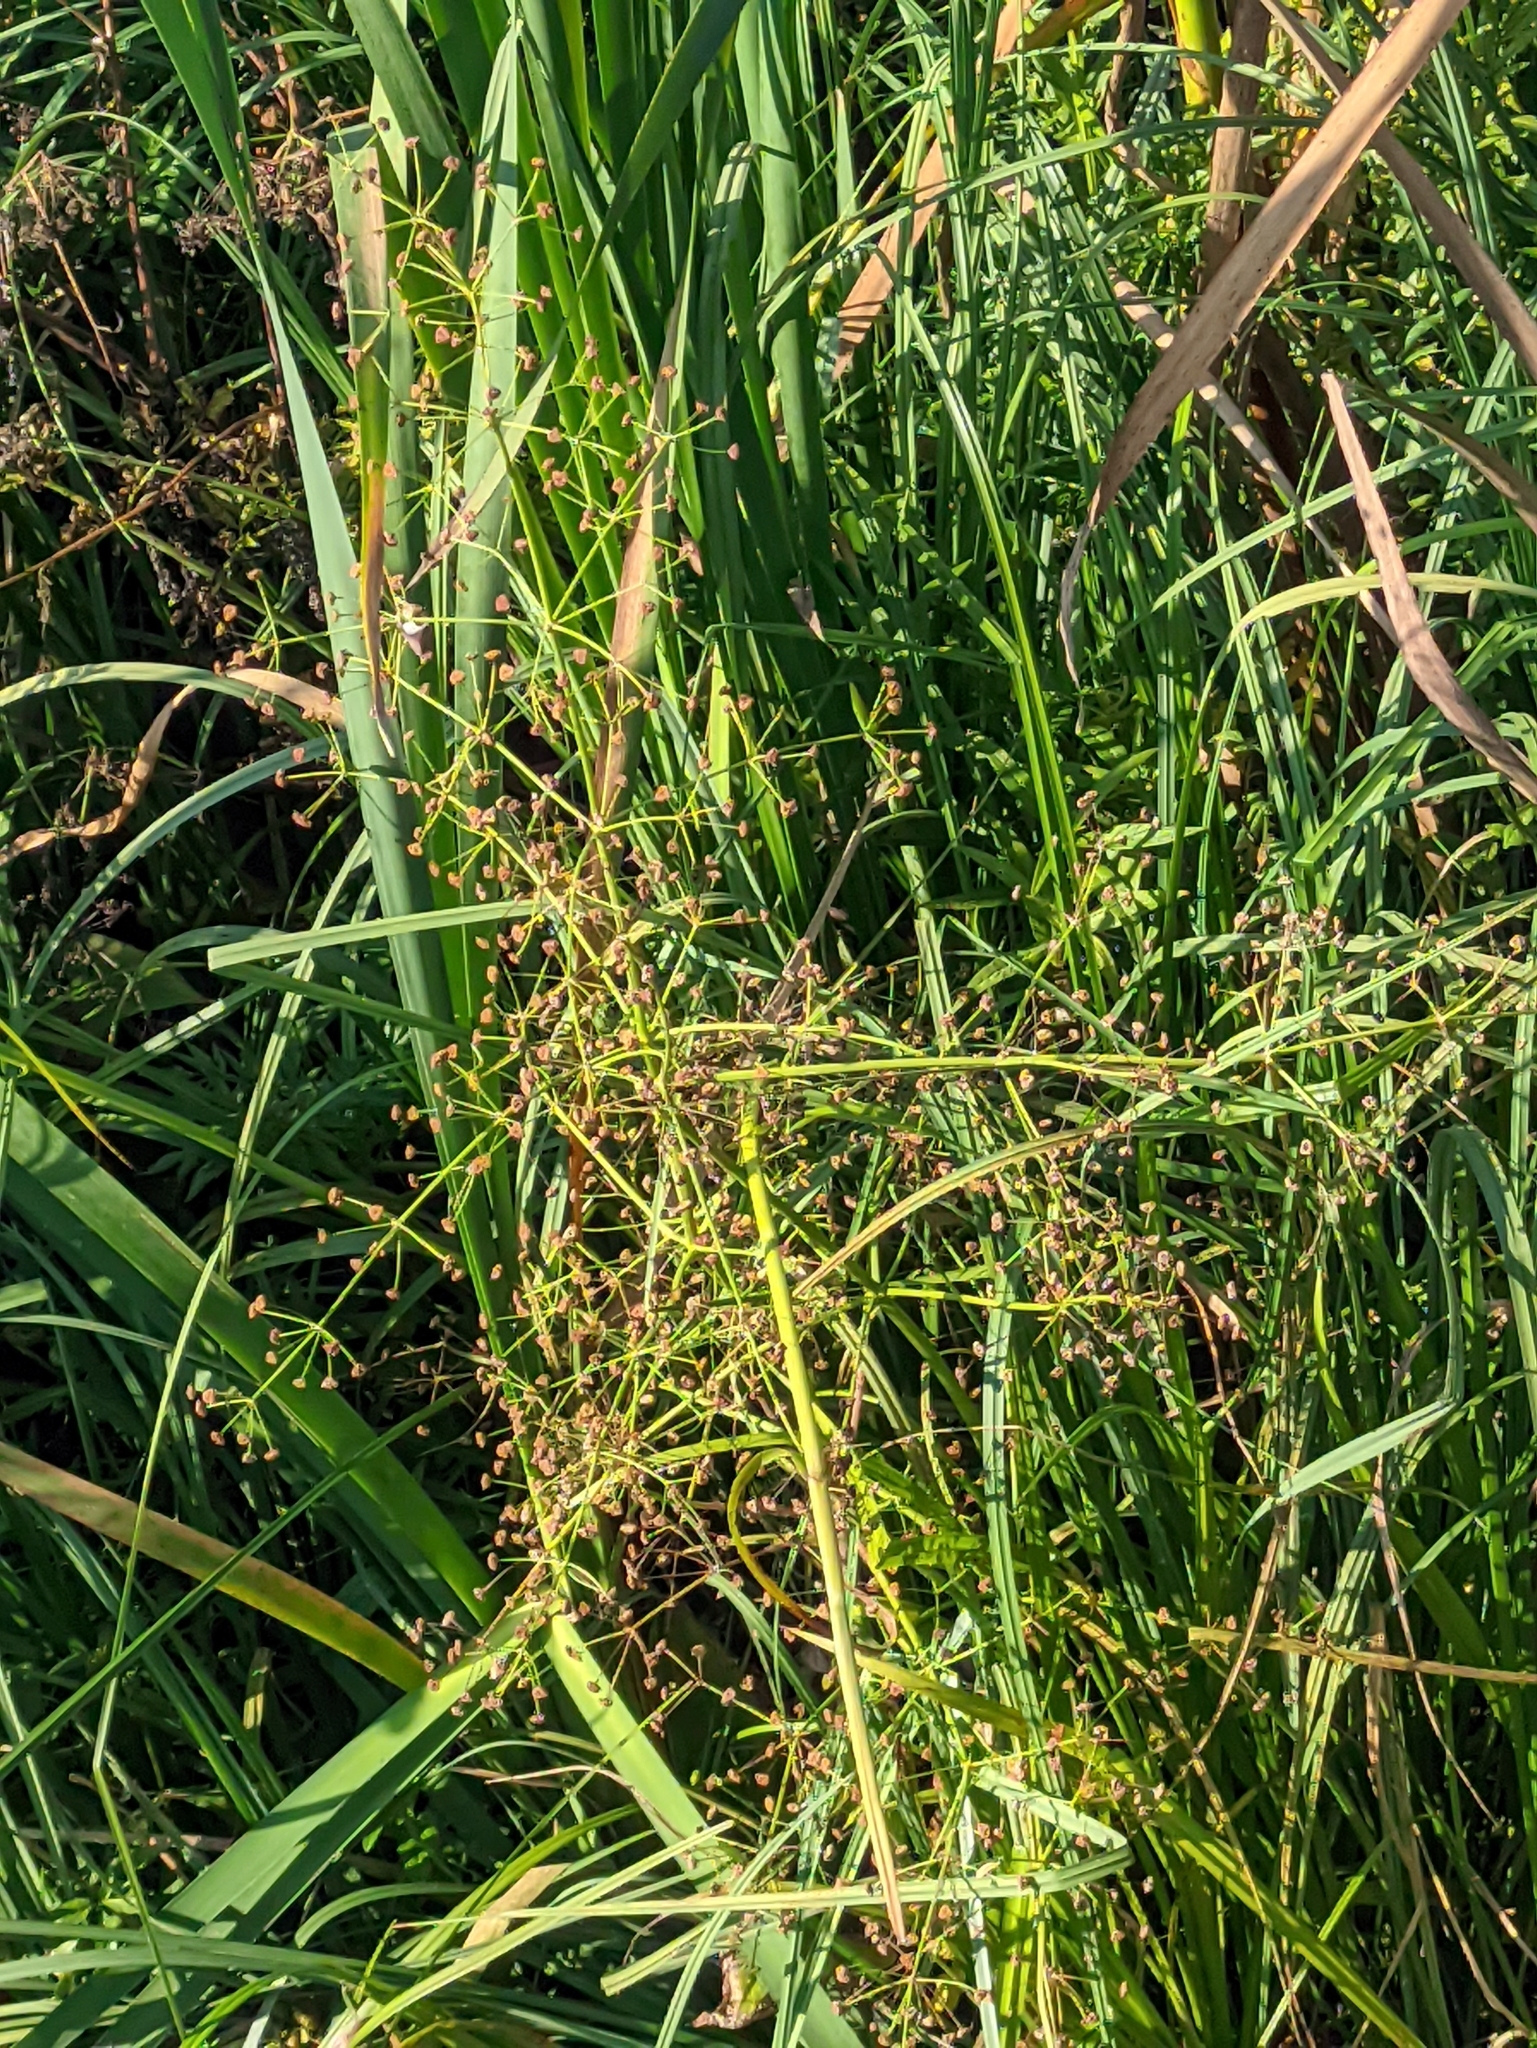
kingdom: Plantae
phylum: Tracheophyta
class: Liliopsida
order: Alismatales
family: Alismataceae
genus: Alisma
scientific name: Alisma plantago-aquatica
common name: Water-plantain
